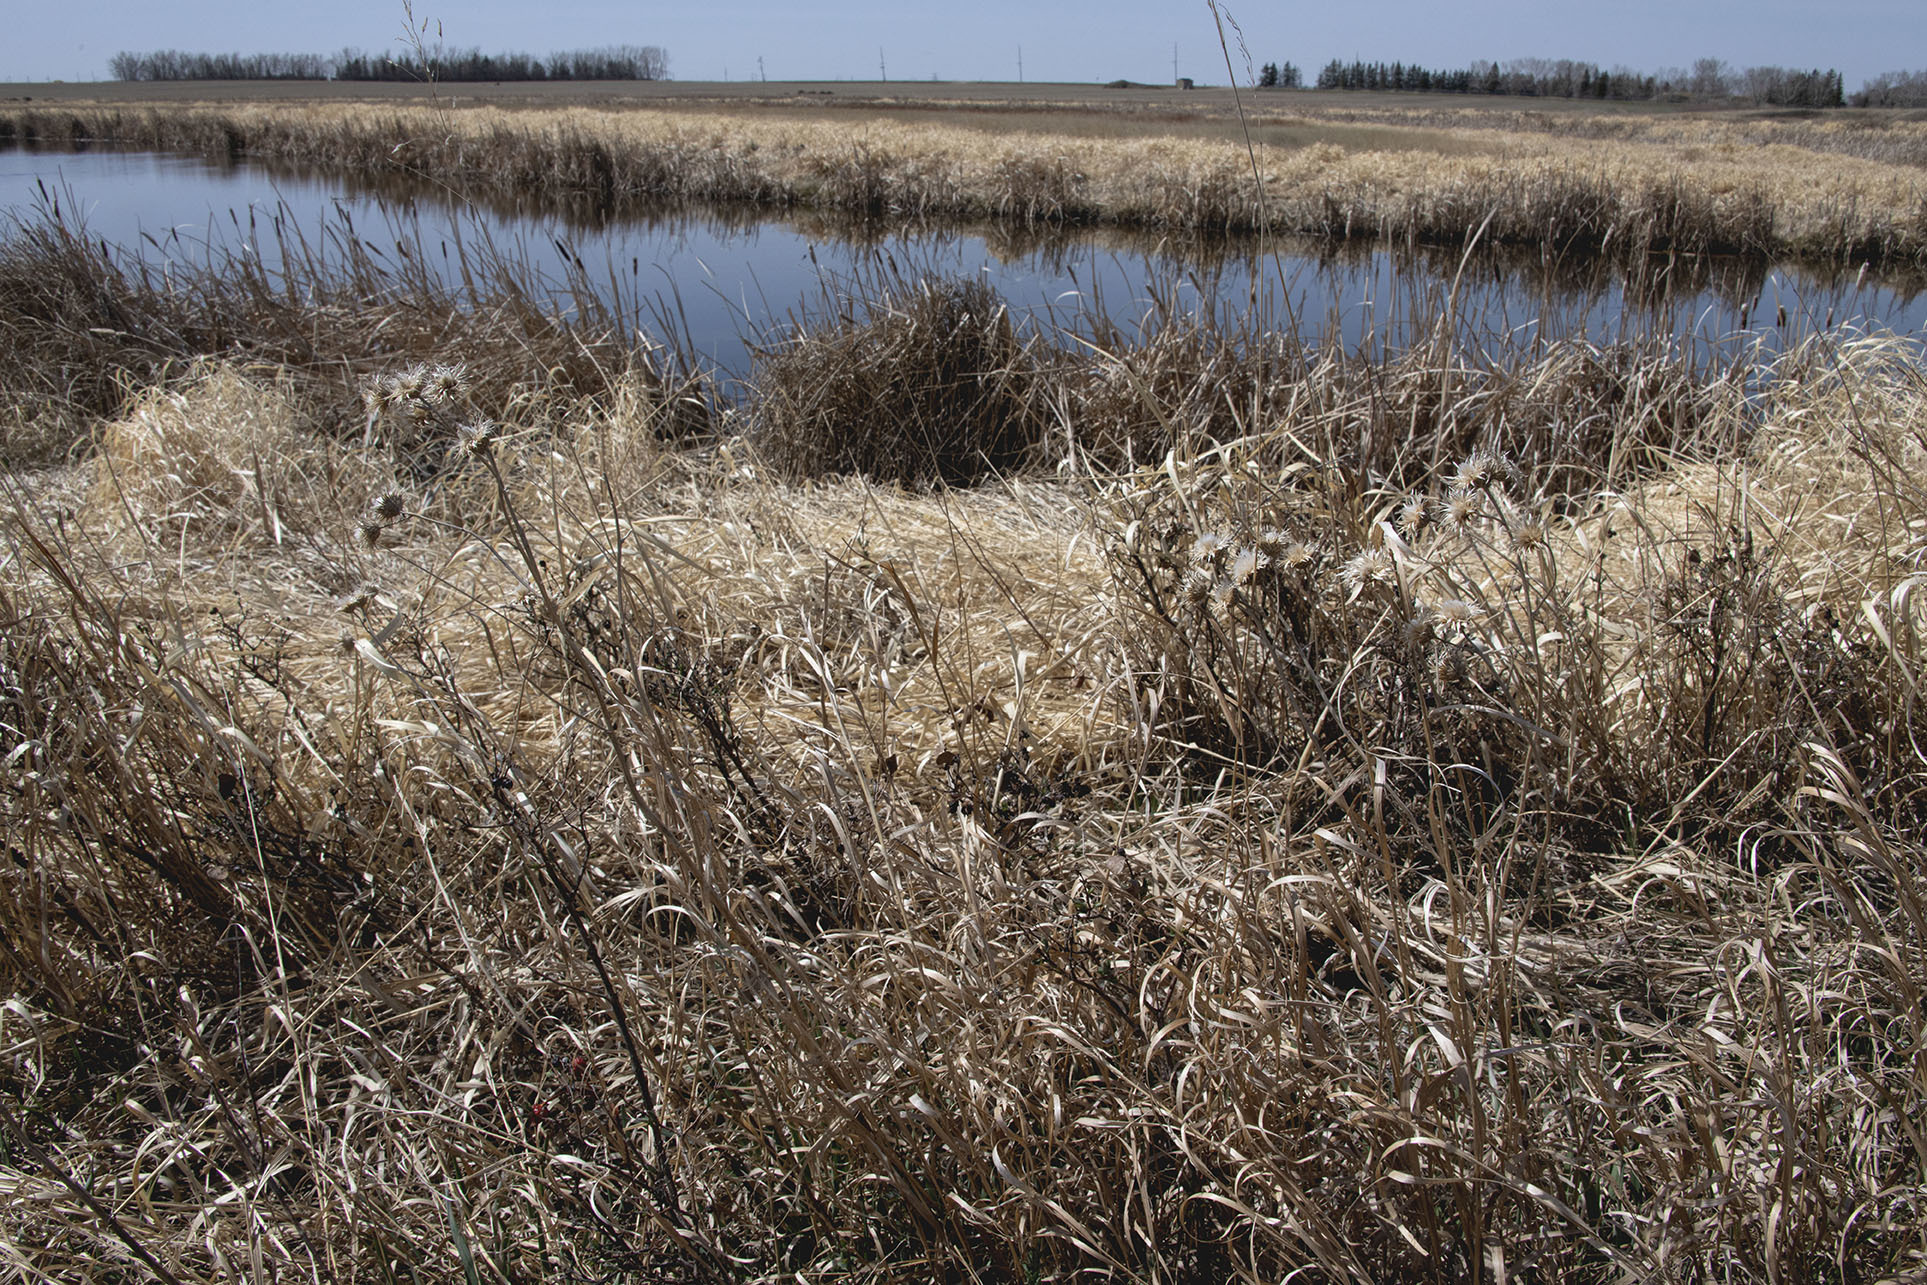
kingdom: Plantae
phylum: Tracheophyta
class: Liliopsida
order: Poales
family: Poaceae
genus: Phalaris
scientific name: Phalaris arundinacea
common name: Reed canary-grass
